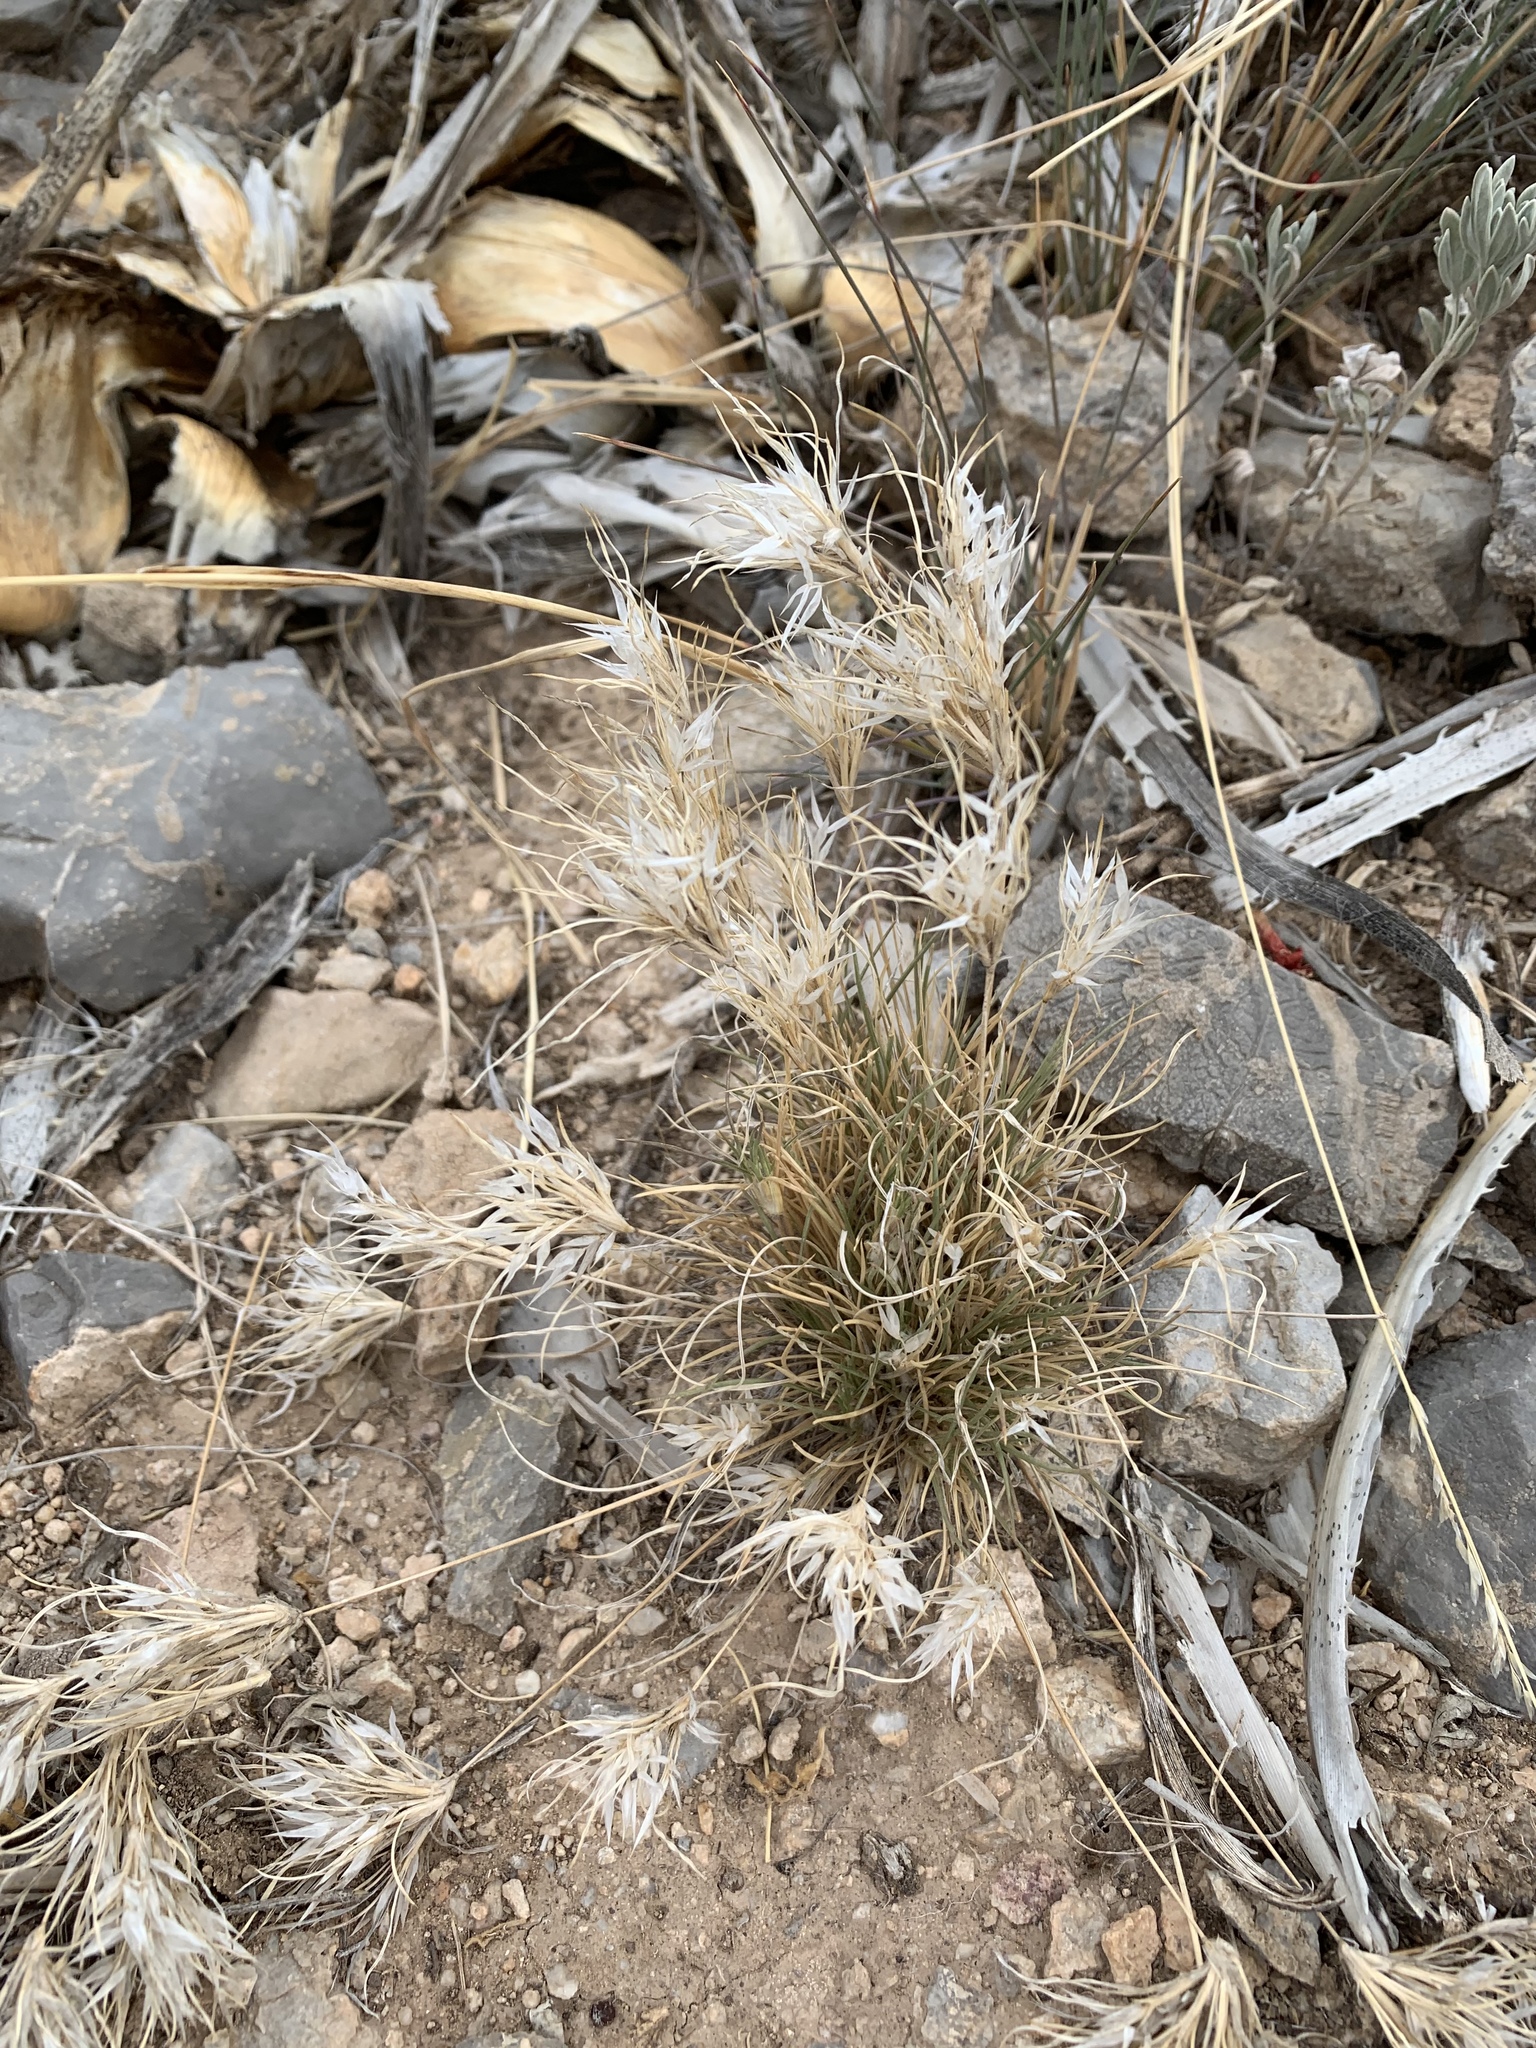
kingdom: Plantae
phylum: Tracheophyta
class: Liliopsida
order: Poales
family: Poaceae
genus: Dasyochloa
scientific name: Dasyochloa pulchella
